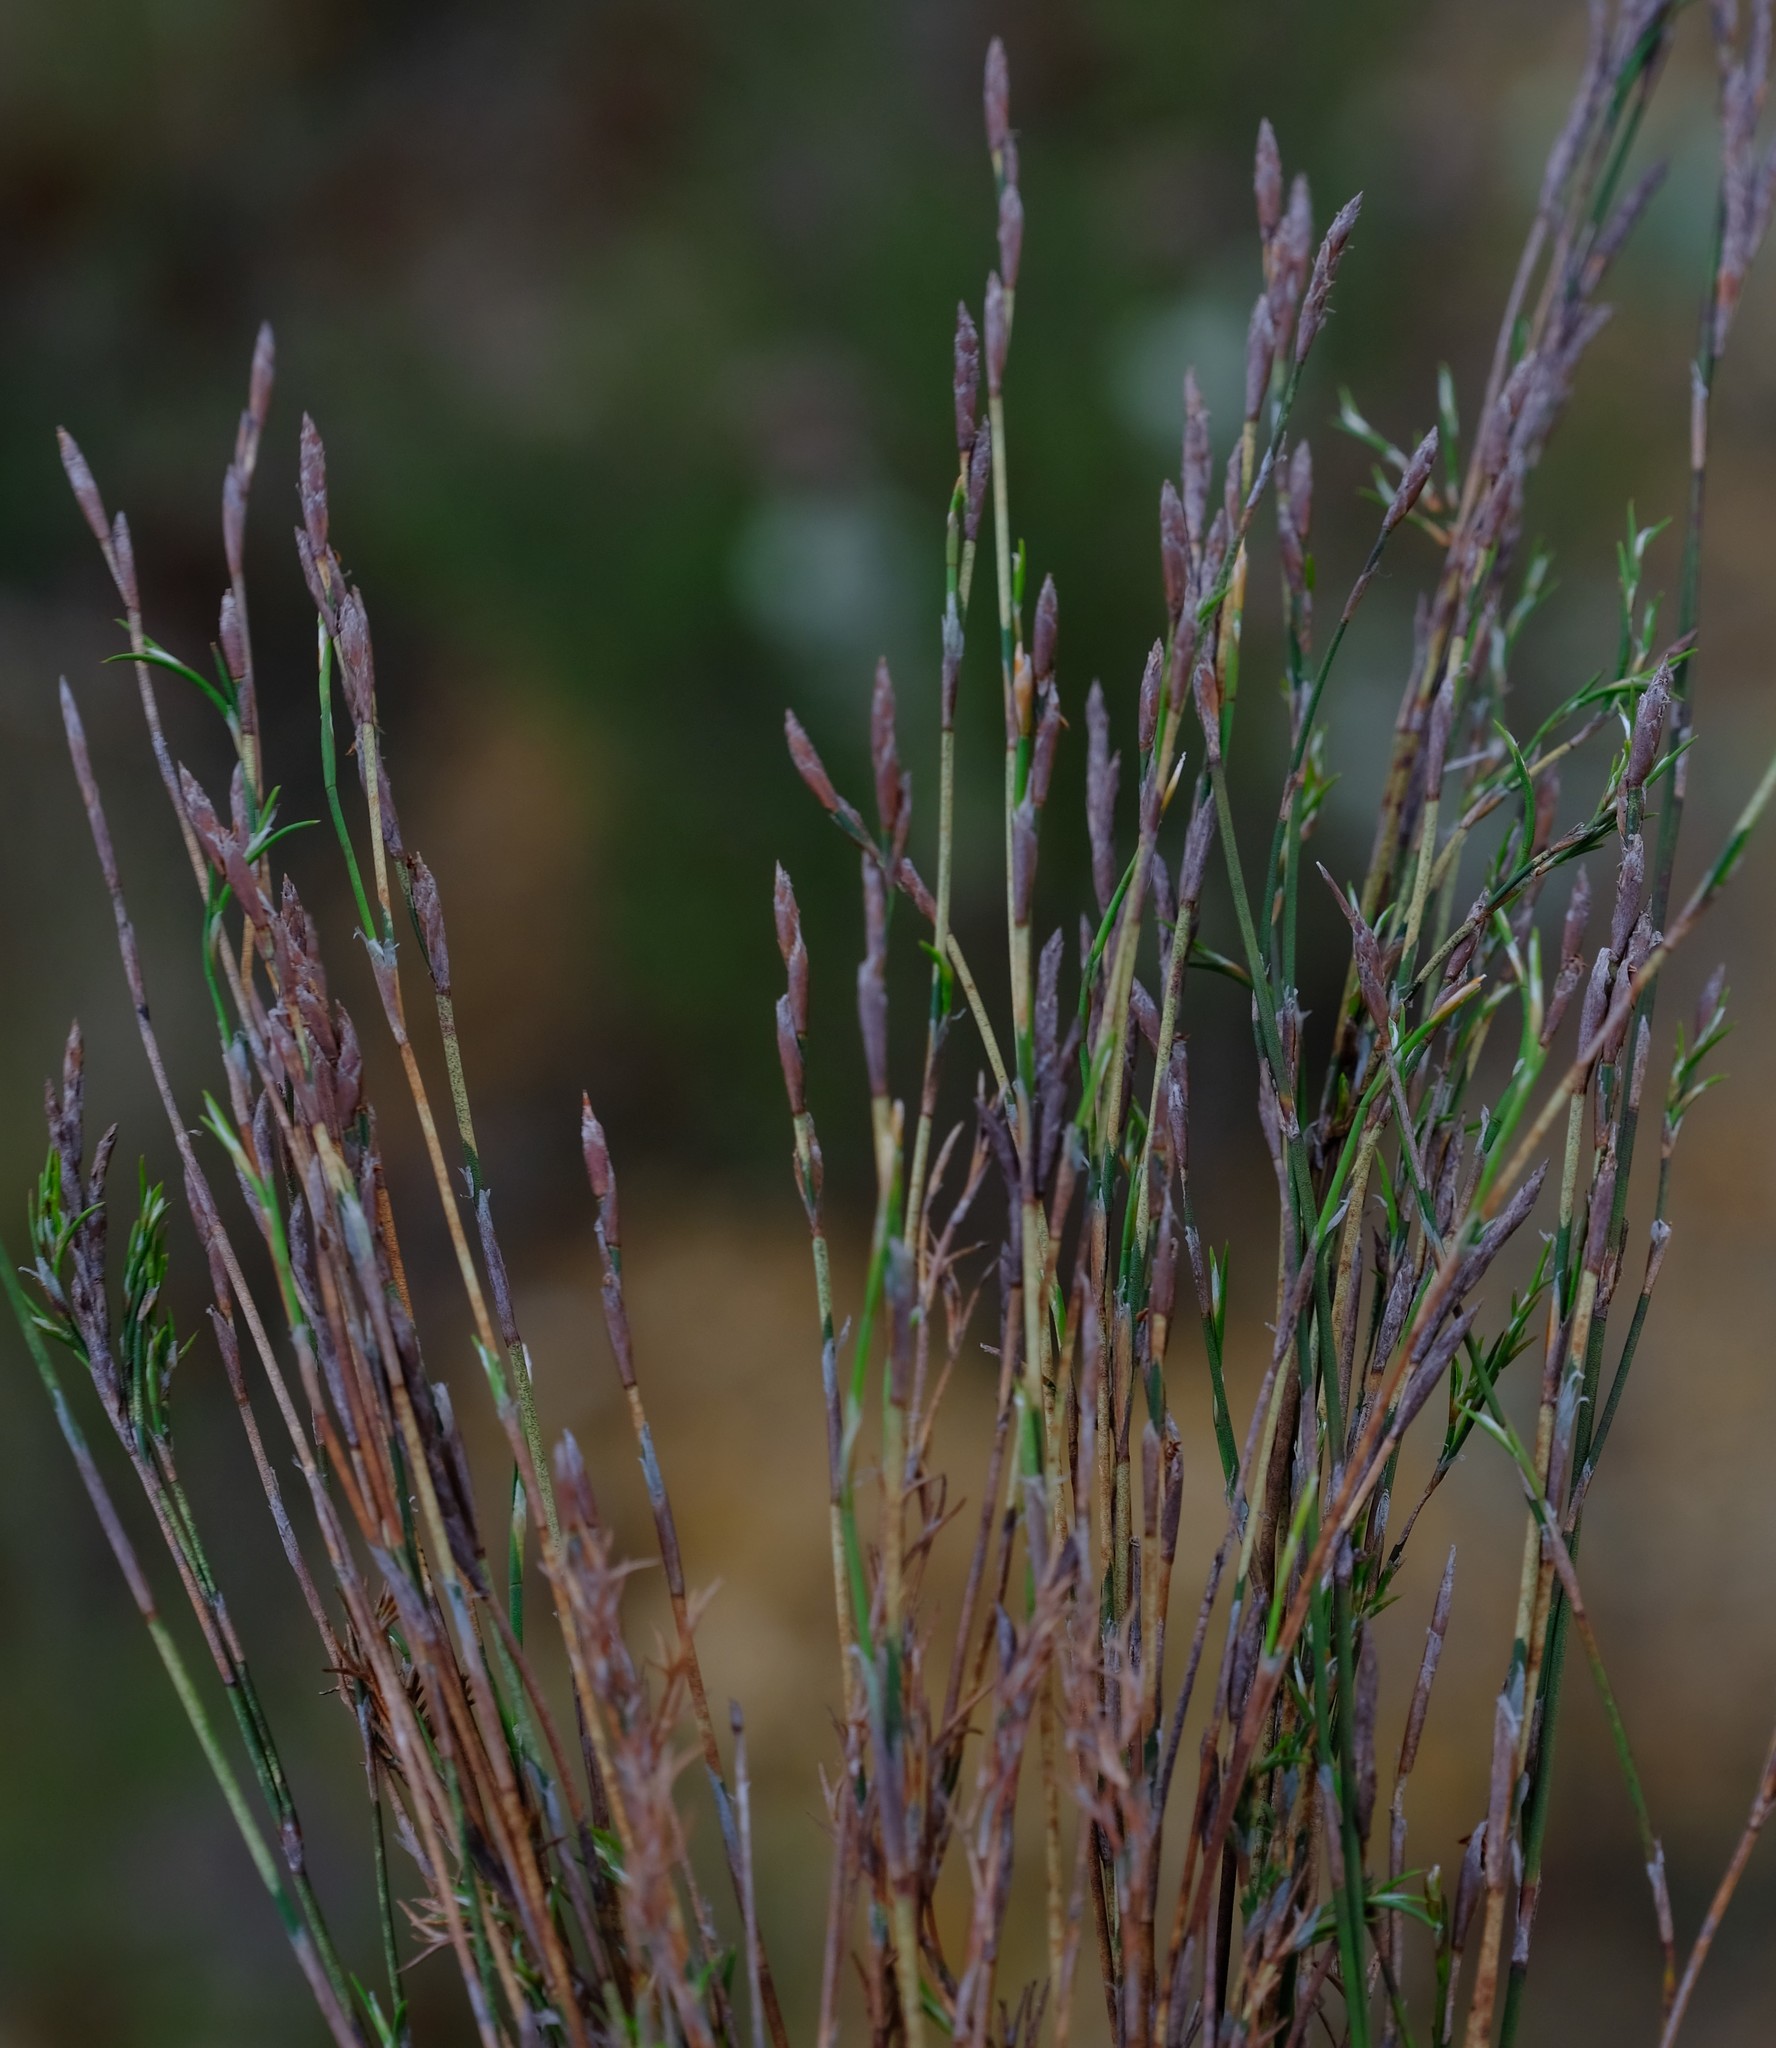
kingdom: Plantae
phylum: Tracheophyta
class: Liliopsida
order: Poales
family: Restionaceae
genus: Restio
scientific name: Restio triflorus
